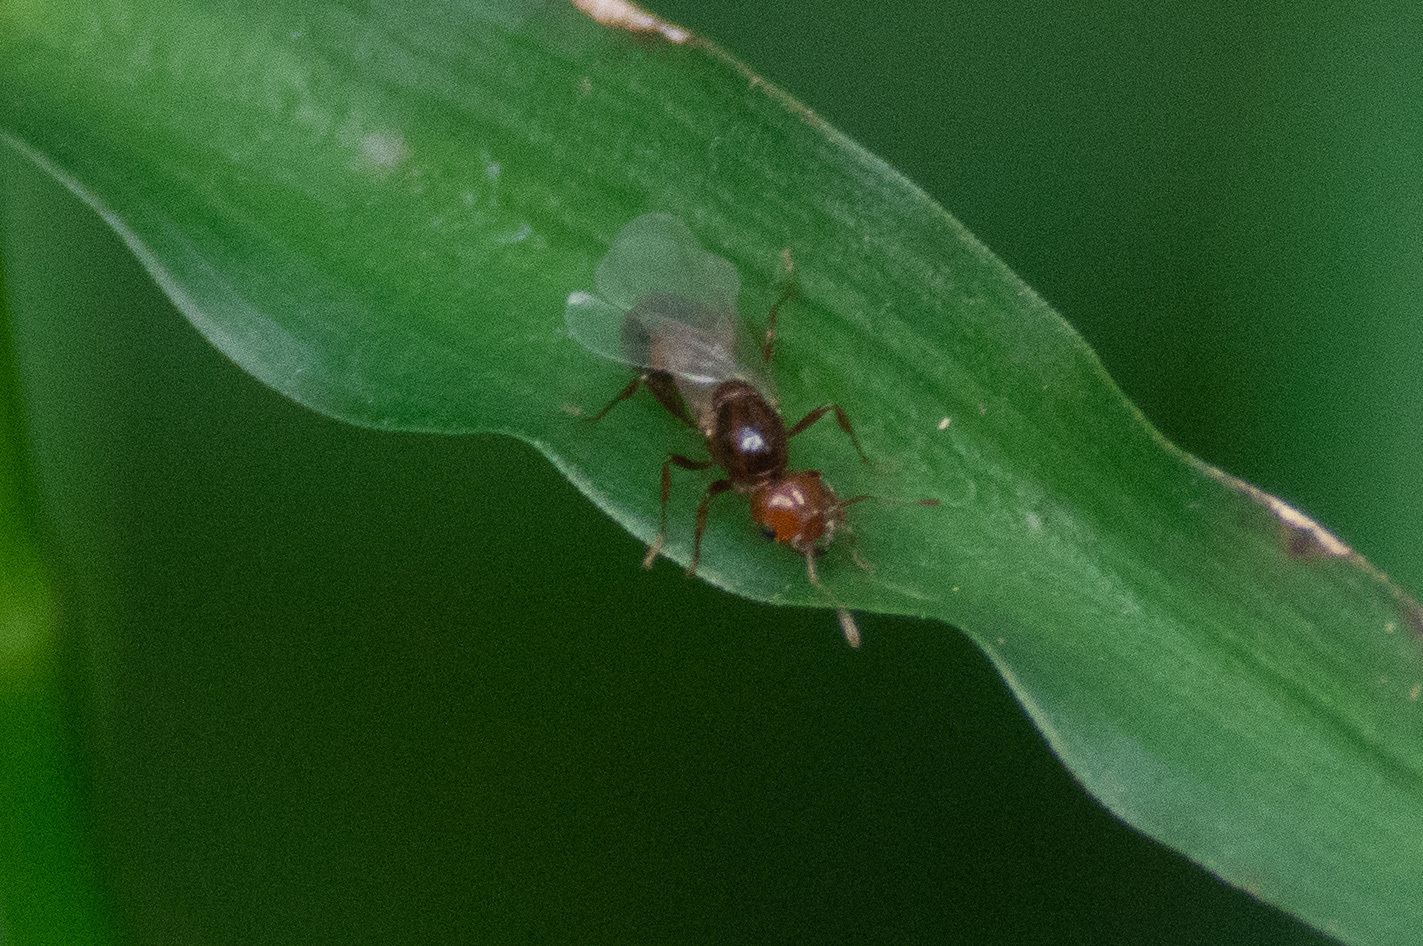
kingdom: Animalia
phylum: Arthropoda
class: Insecta
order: Hymenoptera
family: Formicidae
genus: Solenopsis
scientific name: Solenopsis invicta
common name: Red imported fire ant
